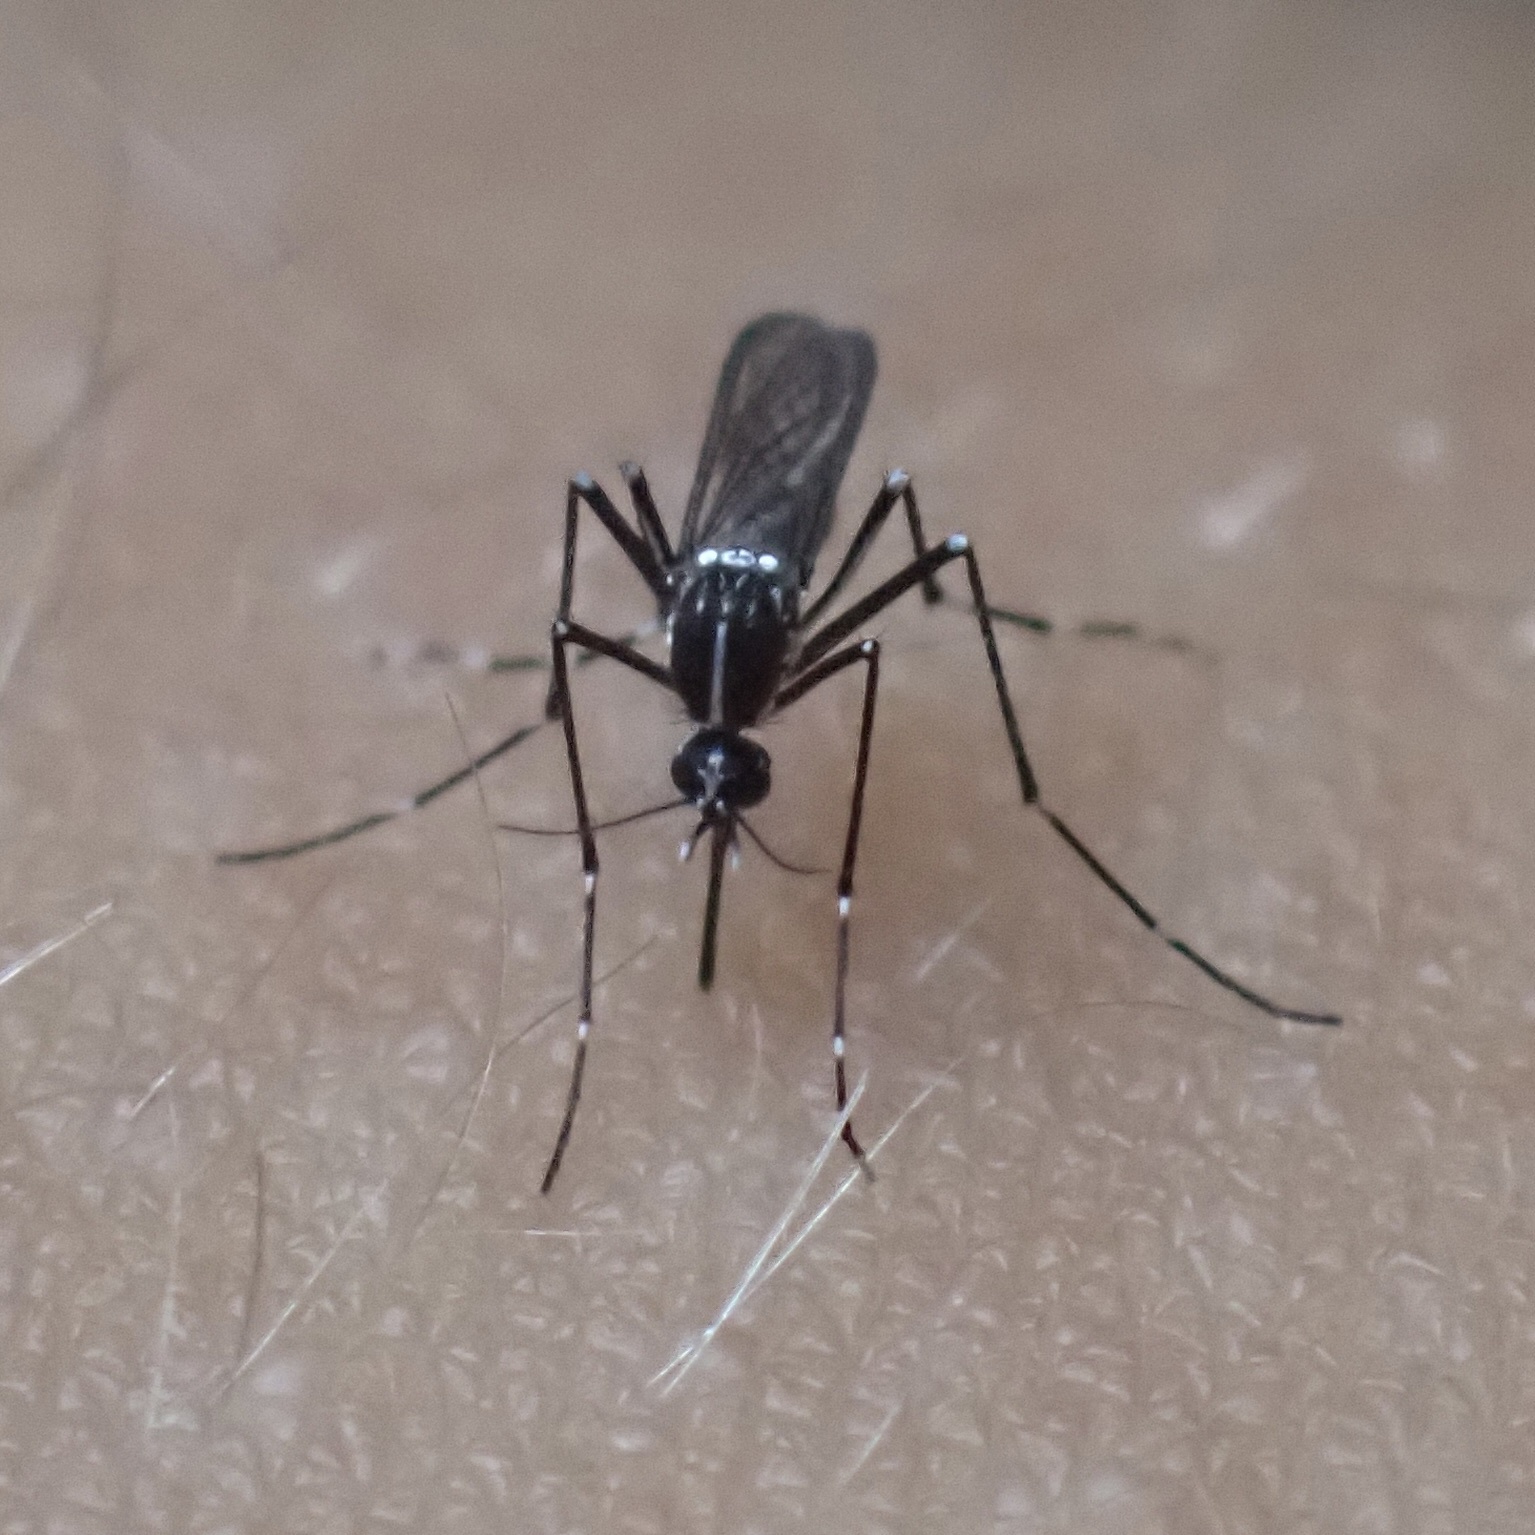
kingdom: Animalia
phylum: Arthropoda
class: Insecta
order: Diptera
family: Culicidae
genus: Aedes
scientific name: Aedes albopictus
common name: Tiger mosquito
